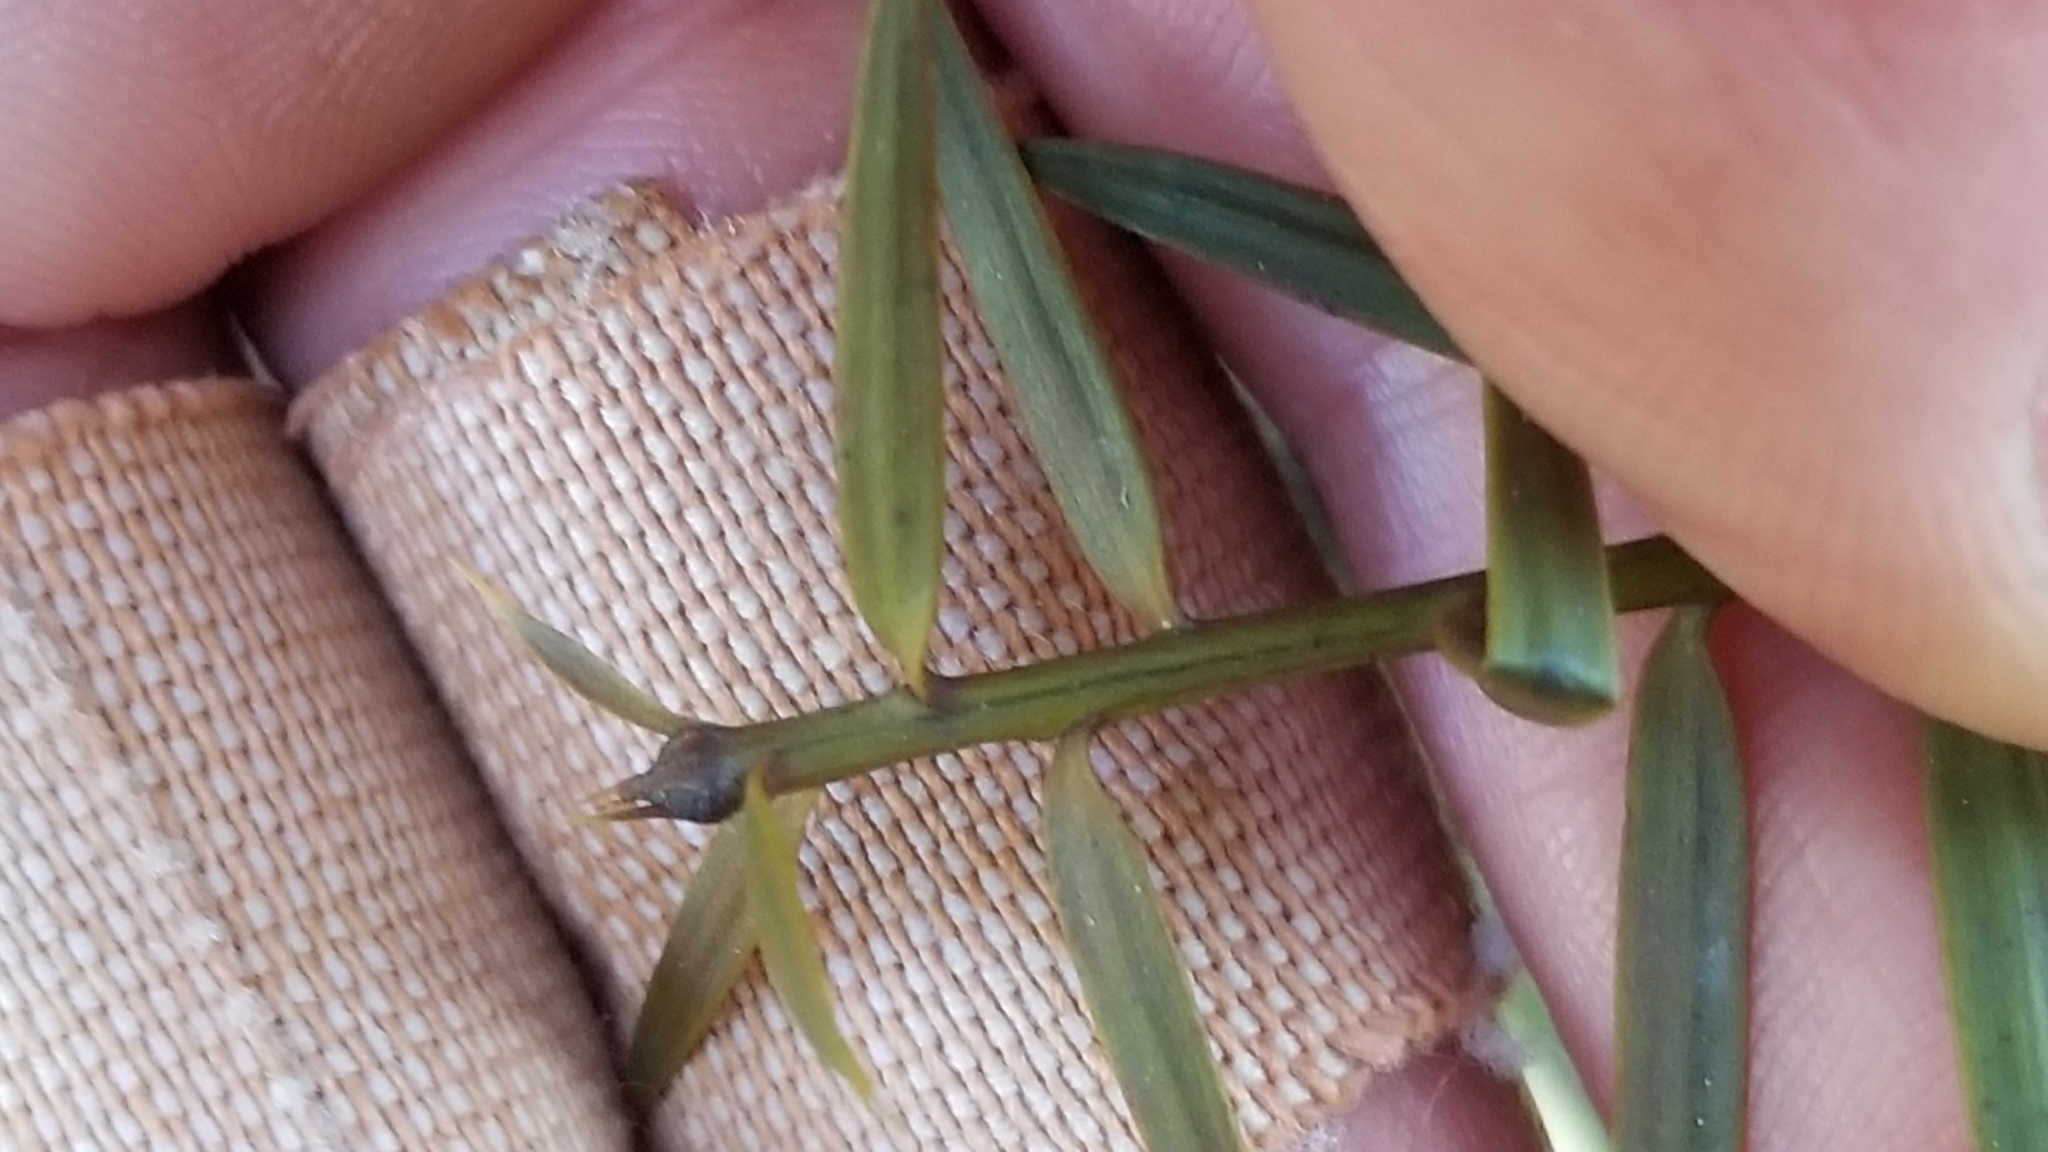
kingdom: Plantae
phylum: Tracheophyta
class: Pinopsida
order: Pinales
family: Podocarpaceae
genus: Podocarpus
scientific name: Podocarpus totara
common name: Totara
